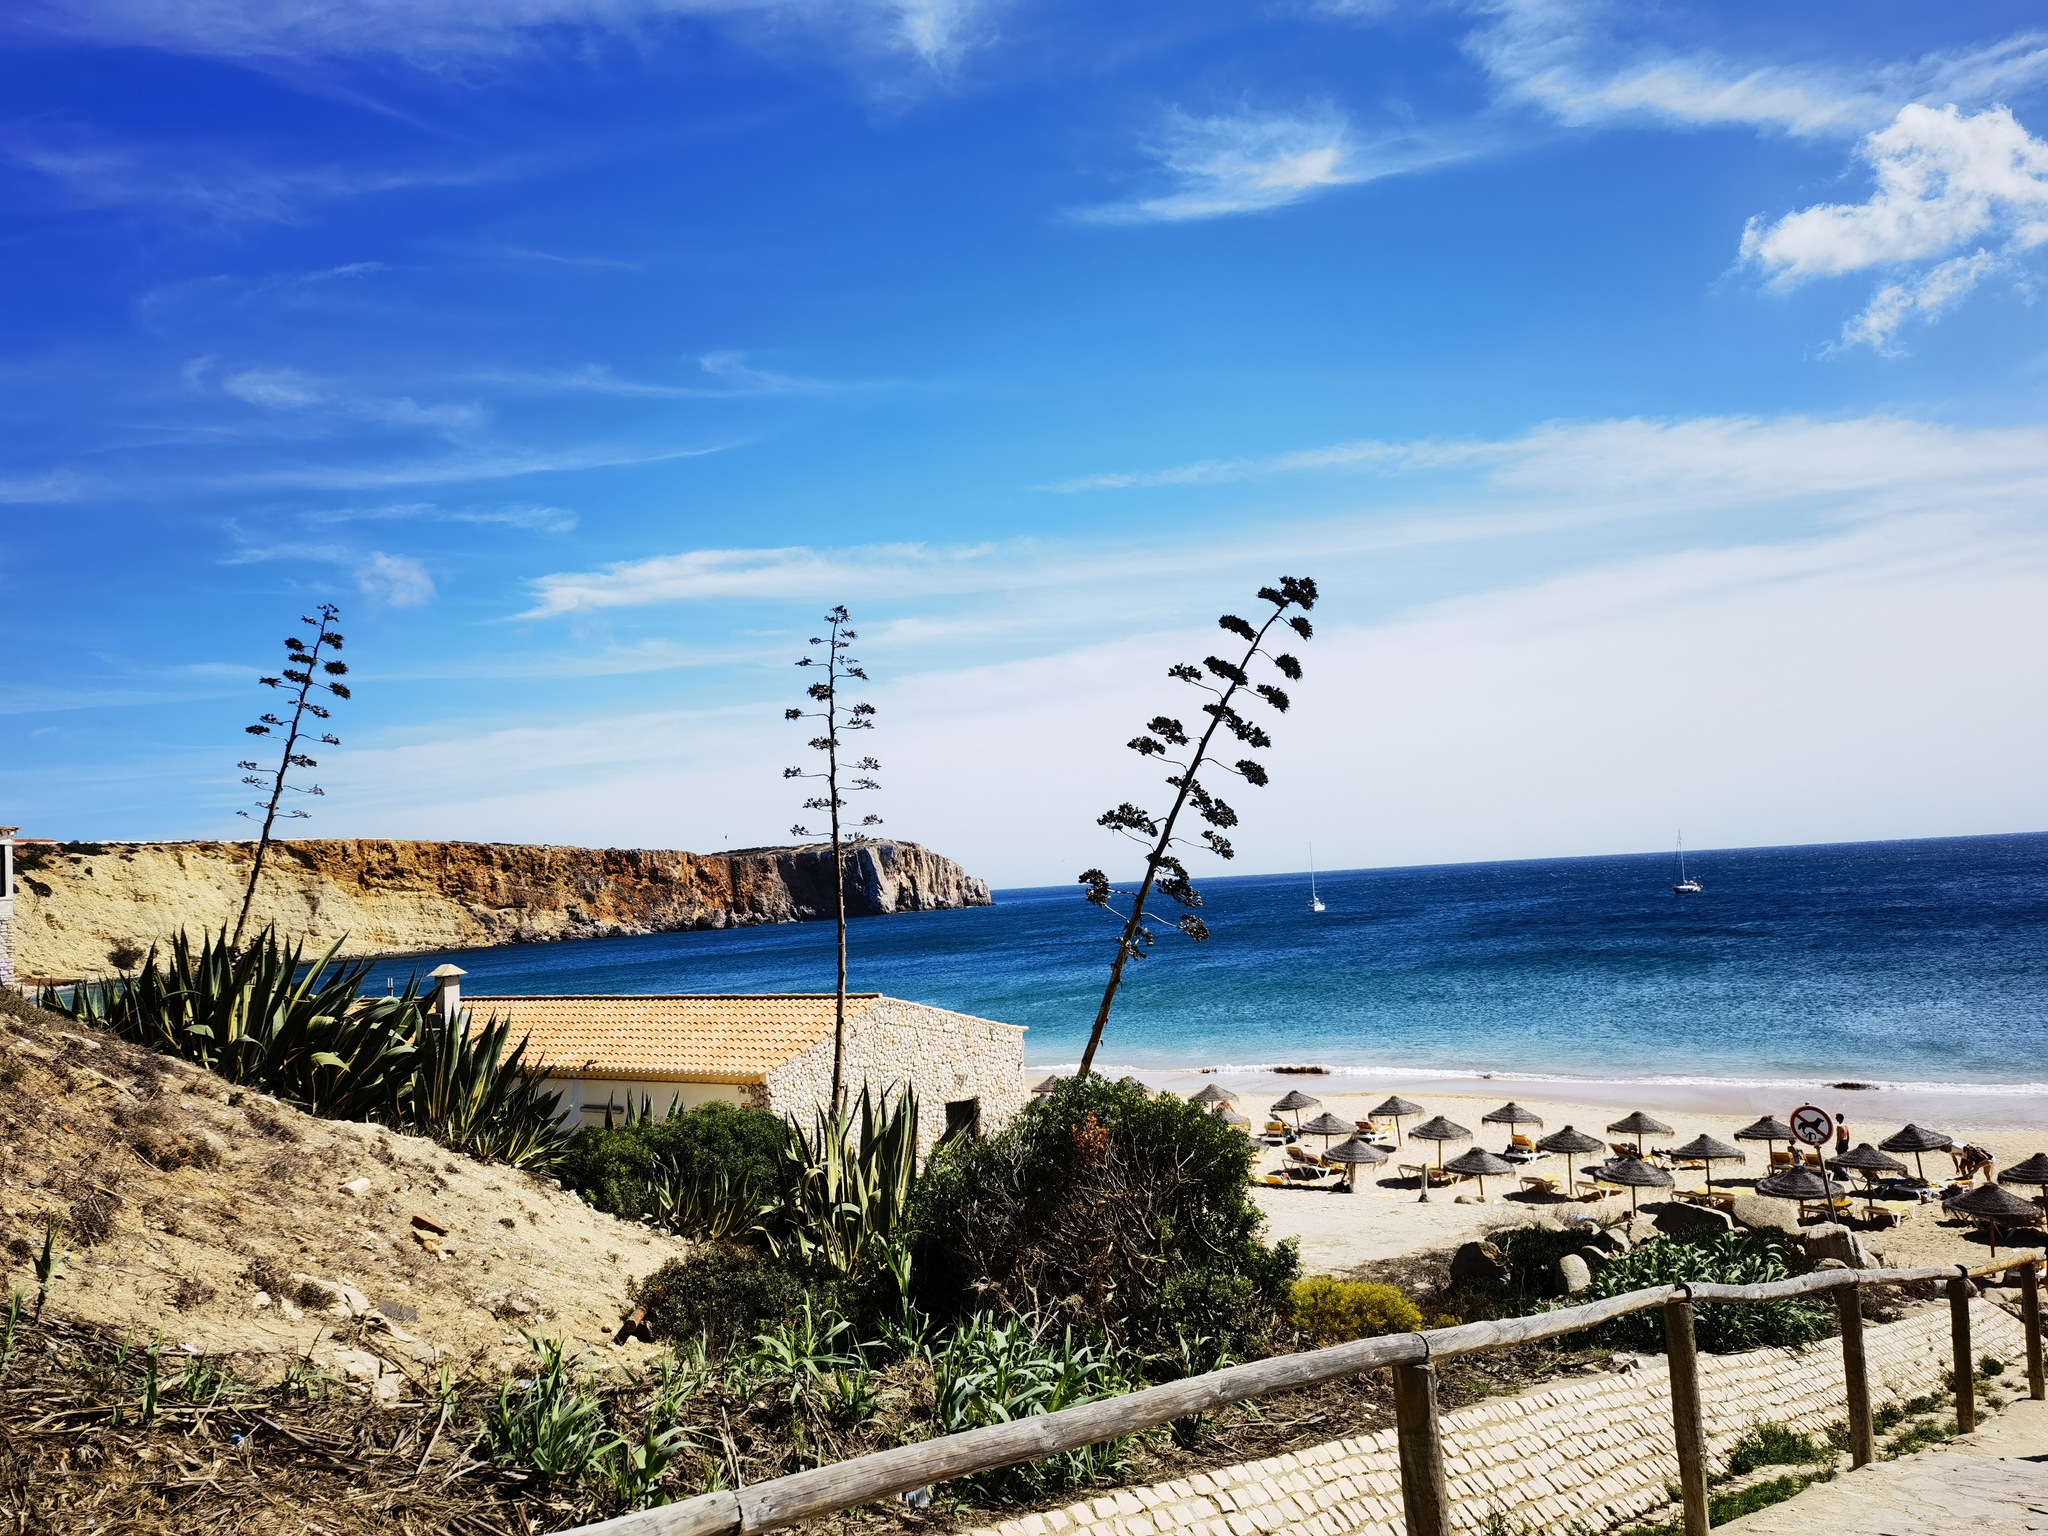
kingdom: Plantae
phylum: Tracheophyta
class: Liliopsida
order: Asparagales
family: Asparagaceae
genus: Agave
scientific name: Agave americana
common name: Centuryplant
